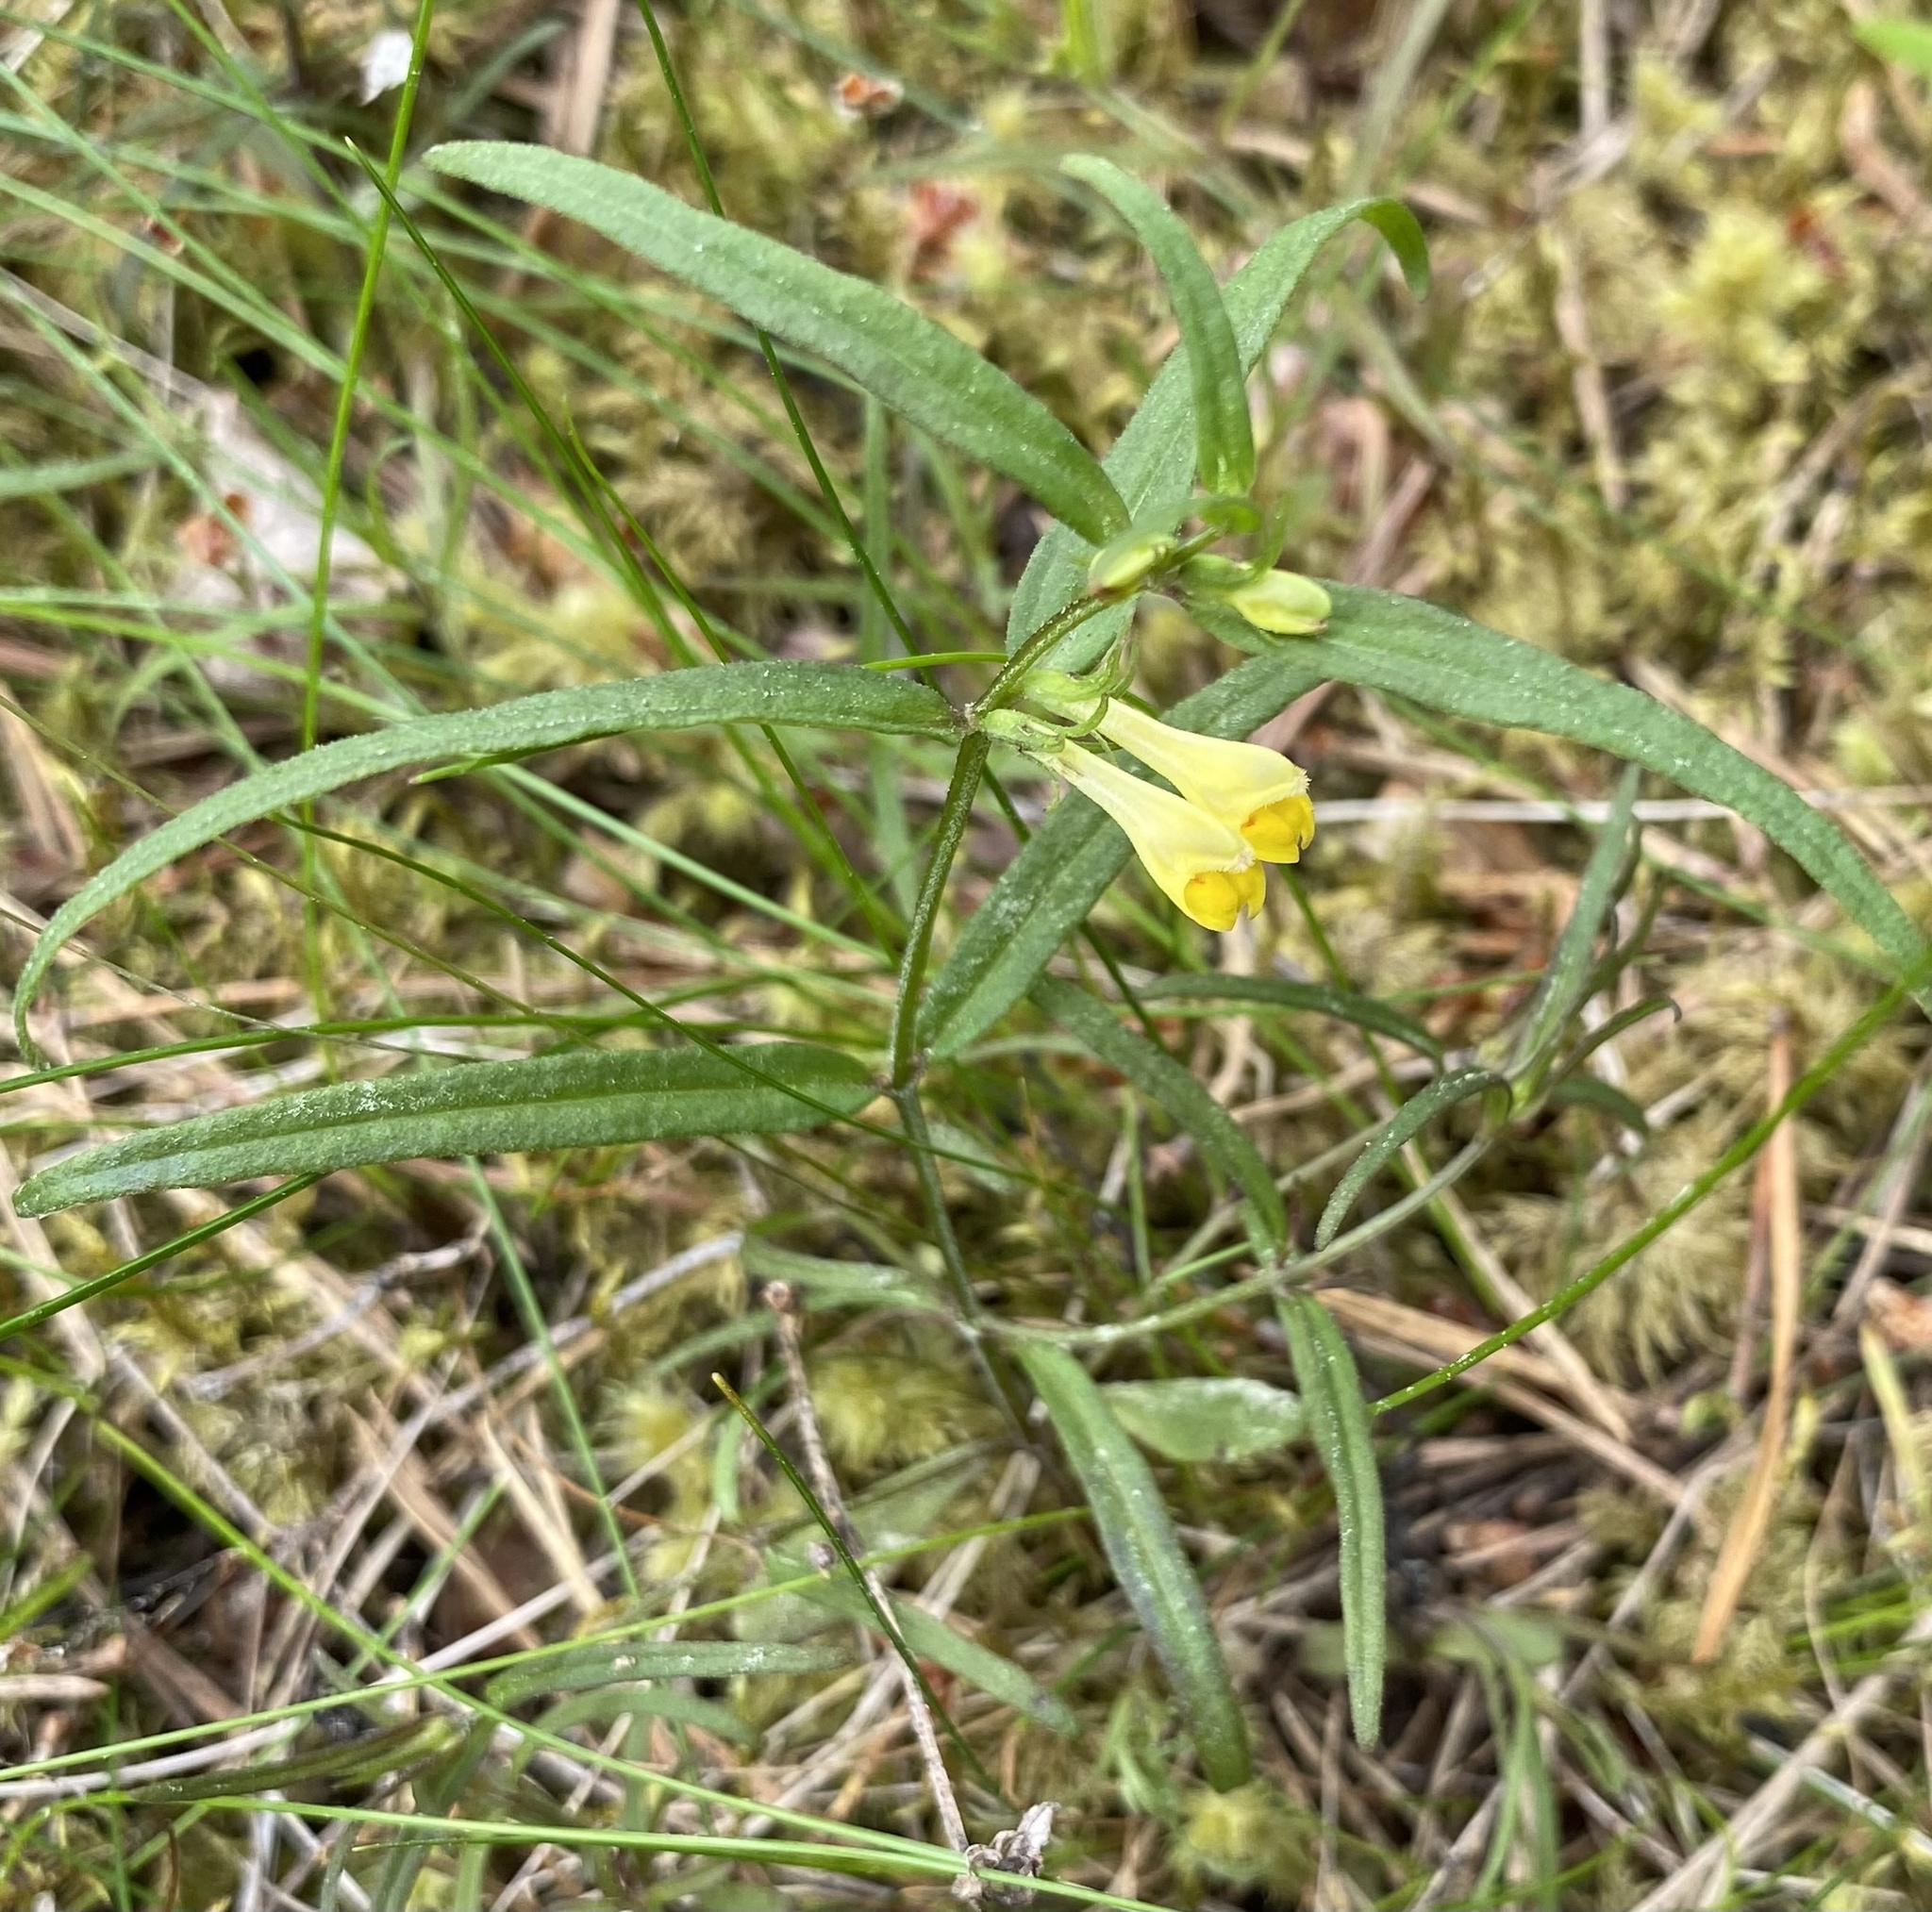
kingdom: Plantae
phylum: Tracheophyta
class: Magnoliopsida
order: Lamiales
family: Orobanchaceae
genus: Melampyrum
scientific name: Melampyrum pratense
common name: Common cow-wheat
